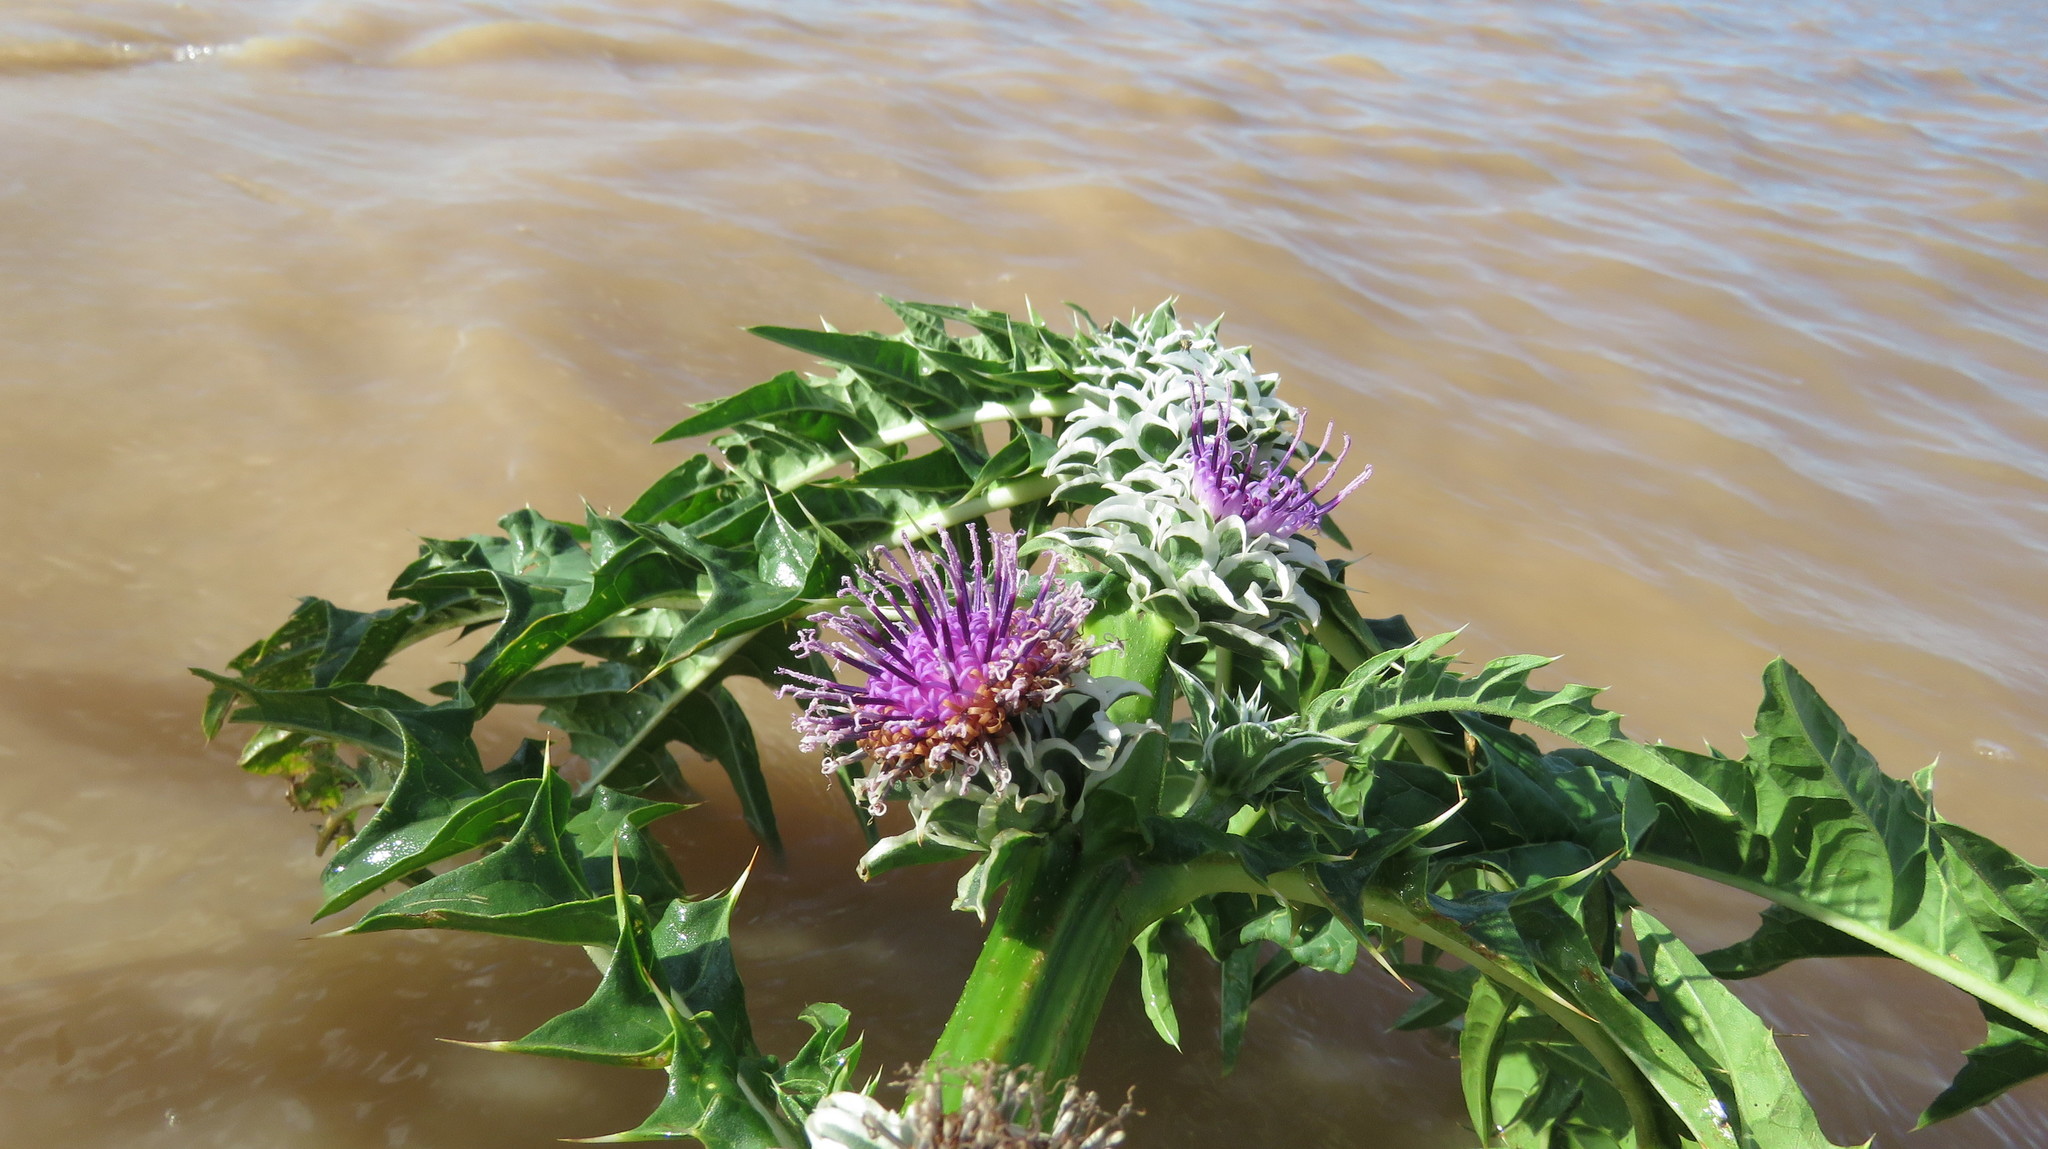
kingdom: Plantae
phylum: Tracheophyta
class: Magnoliopsida
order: Asterales
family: Asteraceae
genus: Pacourina
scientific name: Pacourina edulis
